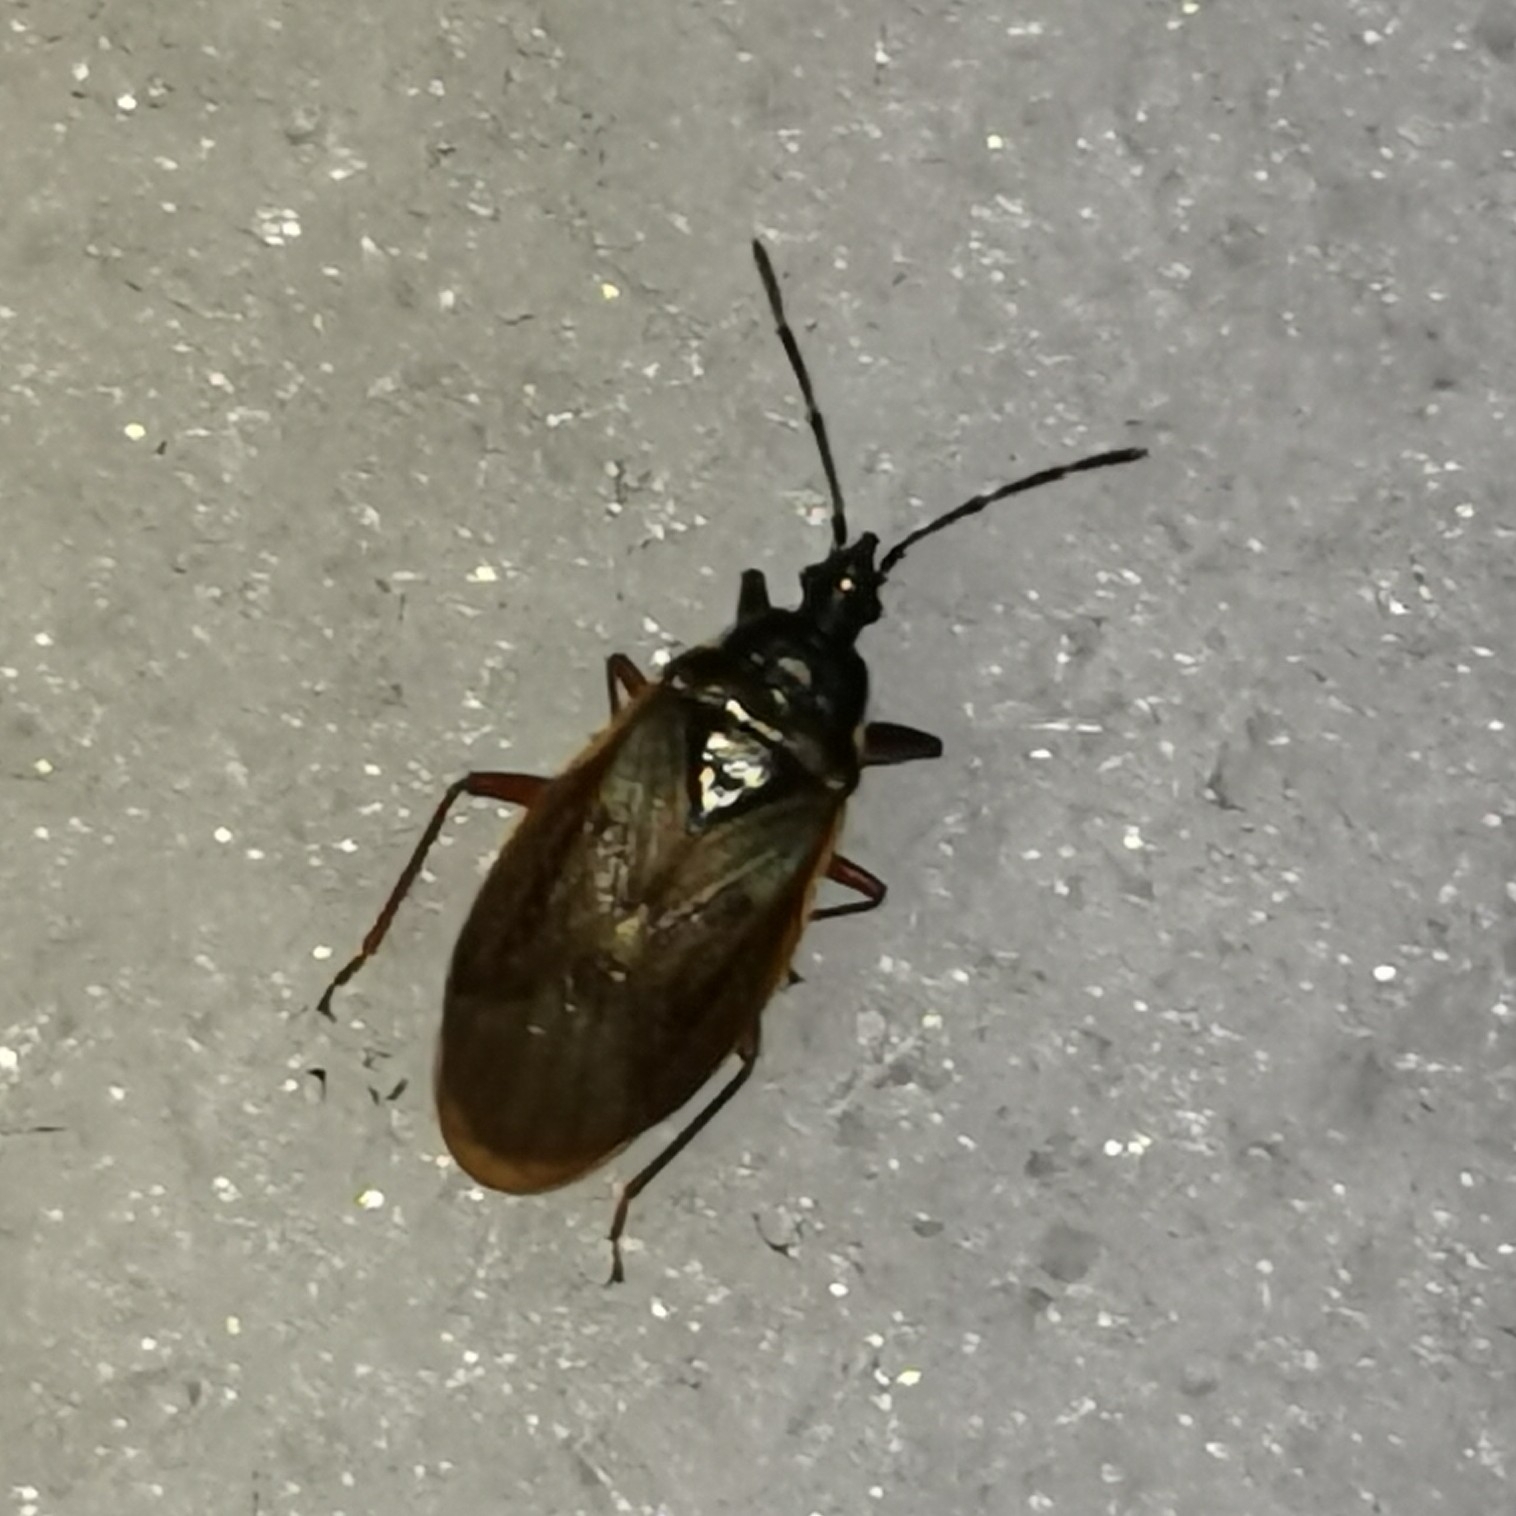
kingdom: Animalia
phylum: Arthropoda
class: Insecta
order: Hemiptera
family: Rhyparochromidae
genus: Gastrodes
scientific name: Gastrodes abietum
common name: Spruce cone bug
